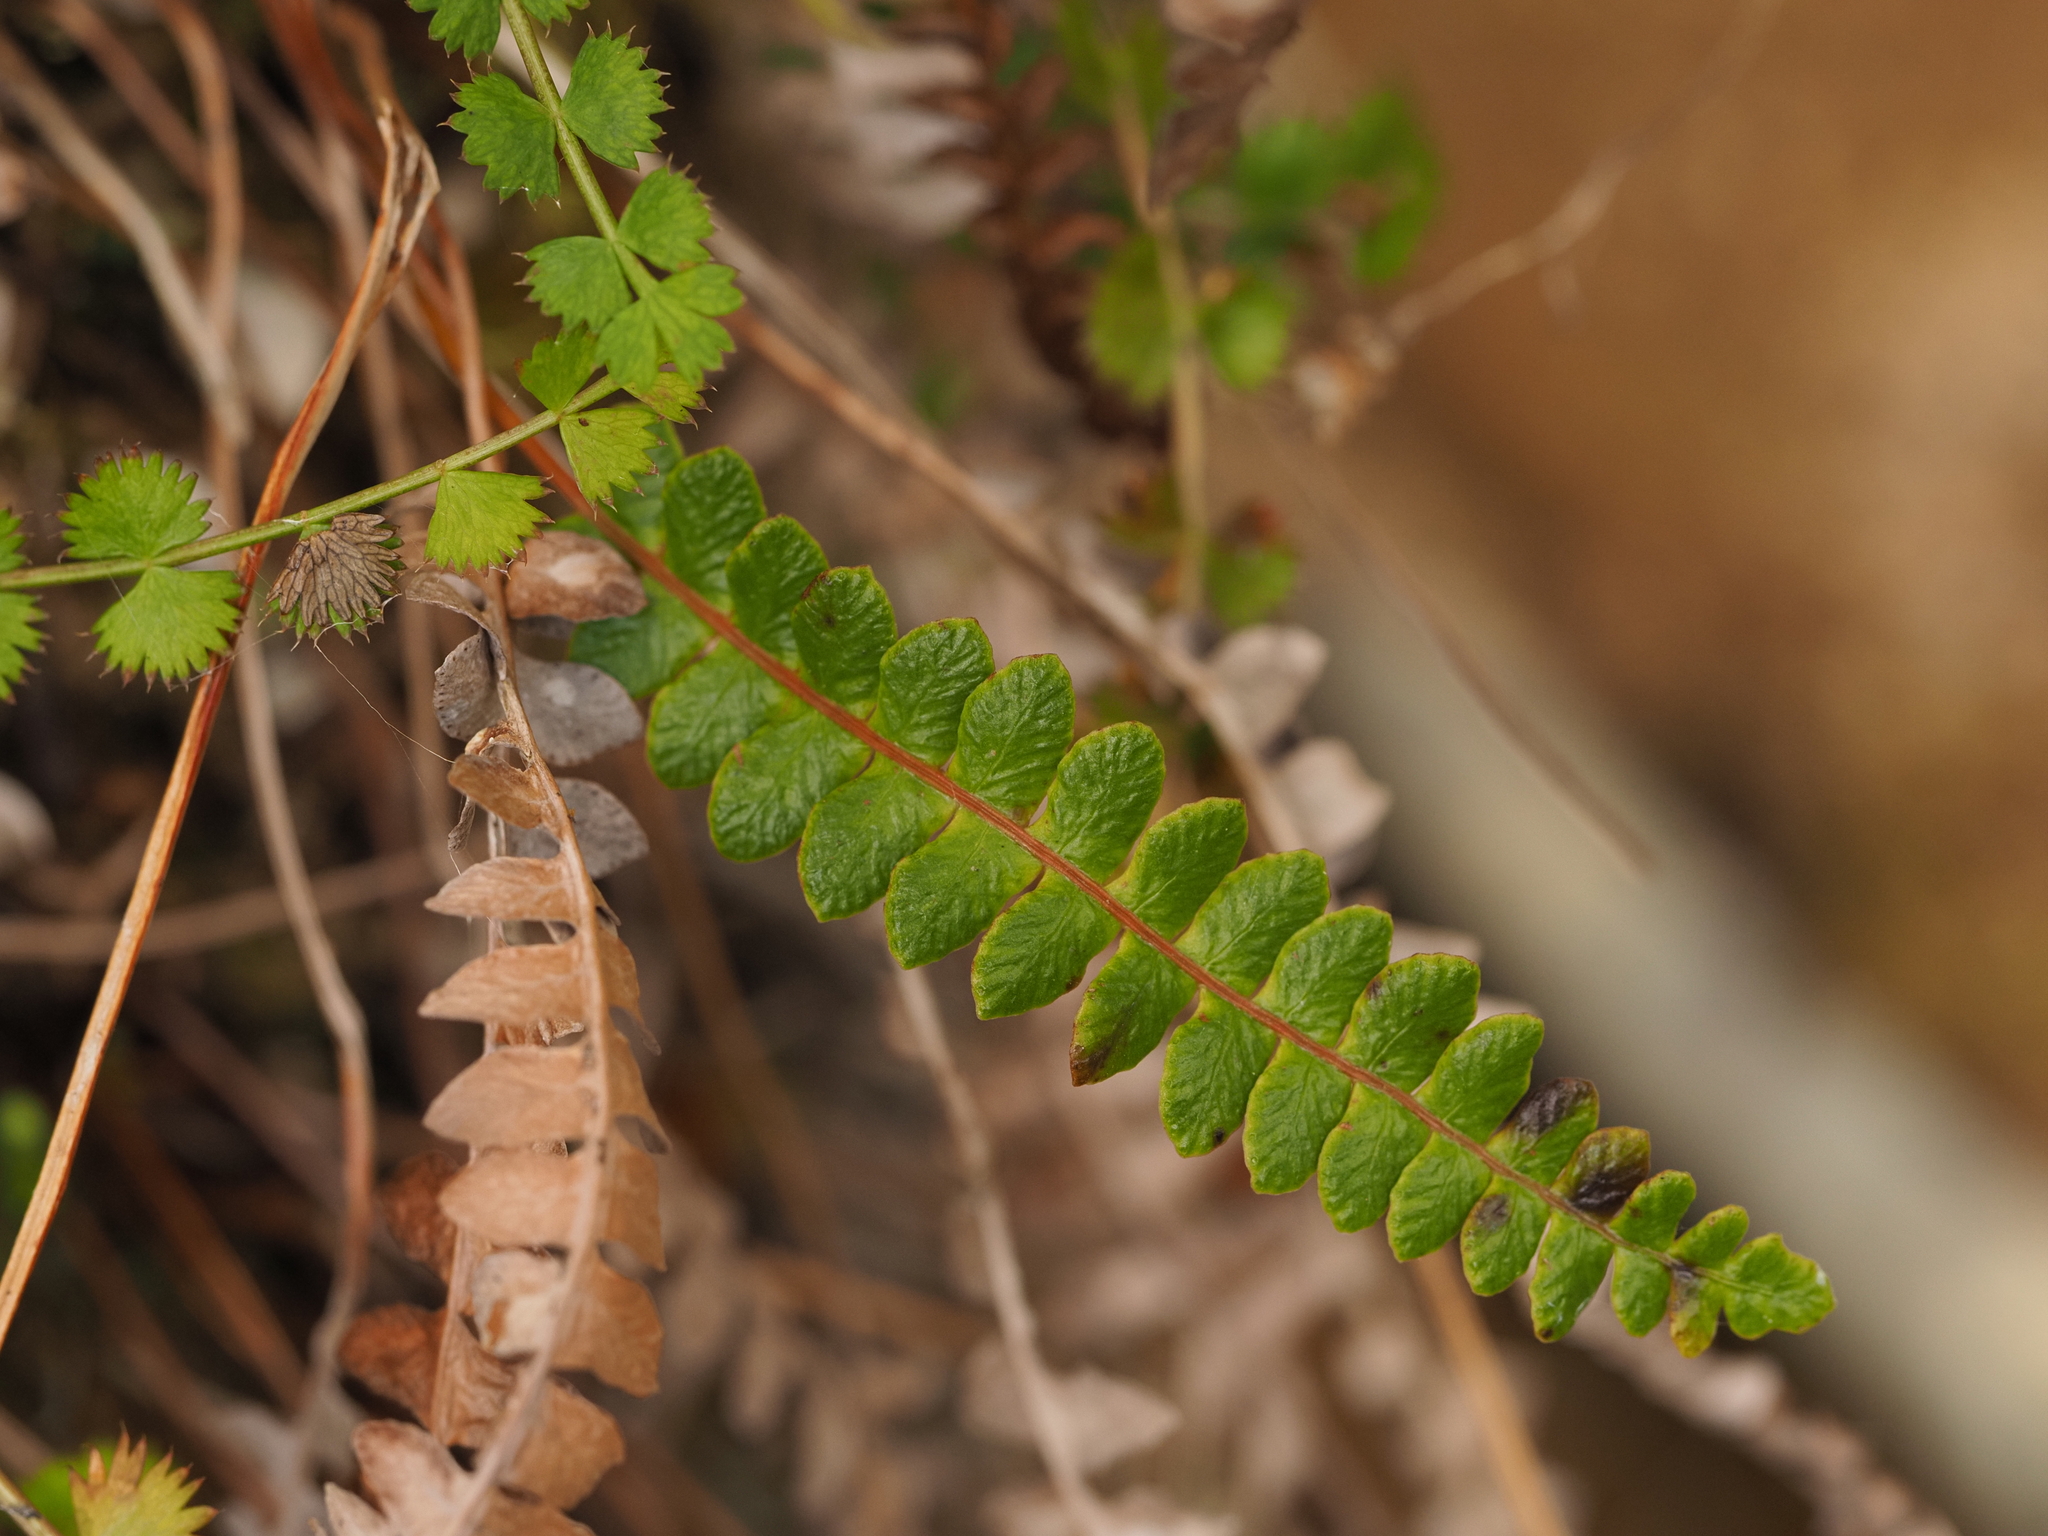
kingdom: Plantae
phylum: Tracheophyta
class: Polypodiopsida
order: Polypodiales
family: Blechnaceae
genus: Austroblechnum
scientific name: Austroblechnum penna-marina
